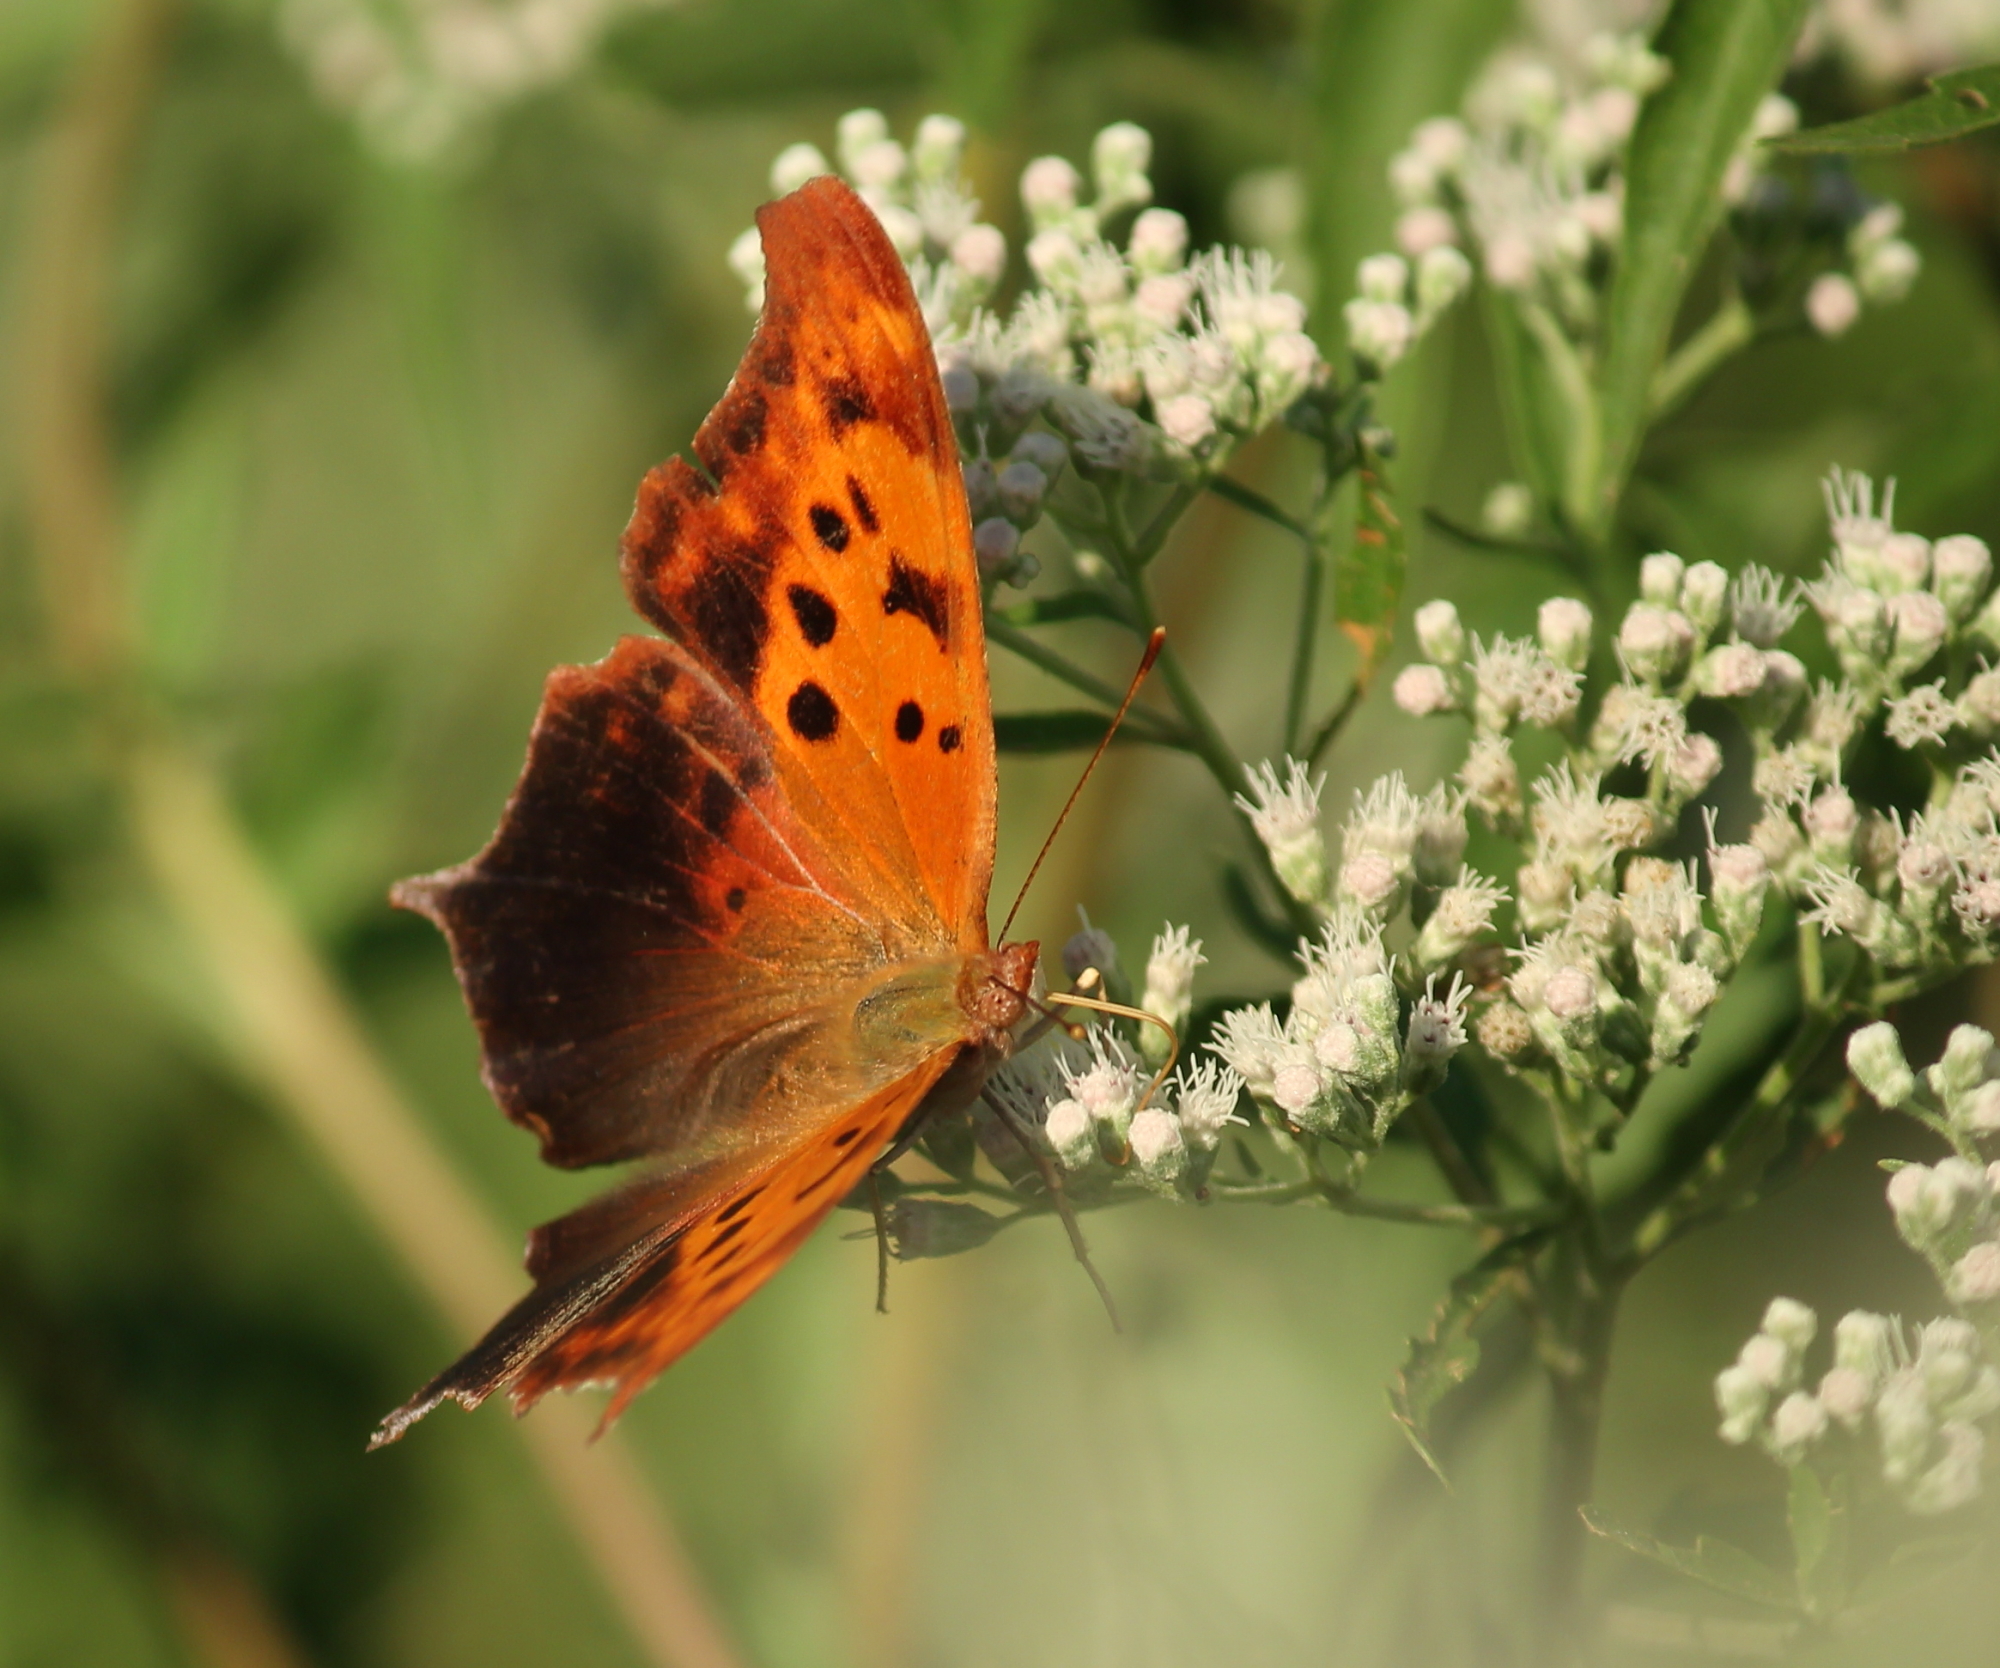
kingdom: Animalia
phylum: Arthropoda
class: Insecta
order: Lepidoptera
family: Nymphalidae
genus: Polygonia
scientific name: Polygonia interrogationis
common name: Question mark
